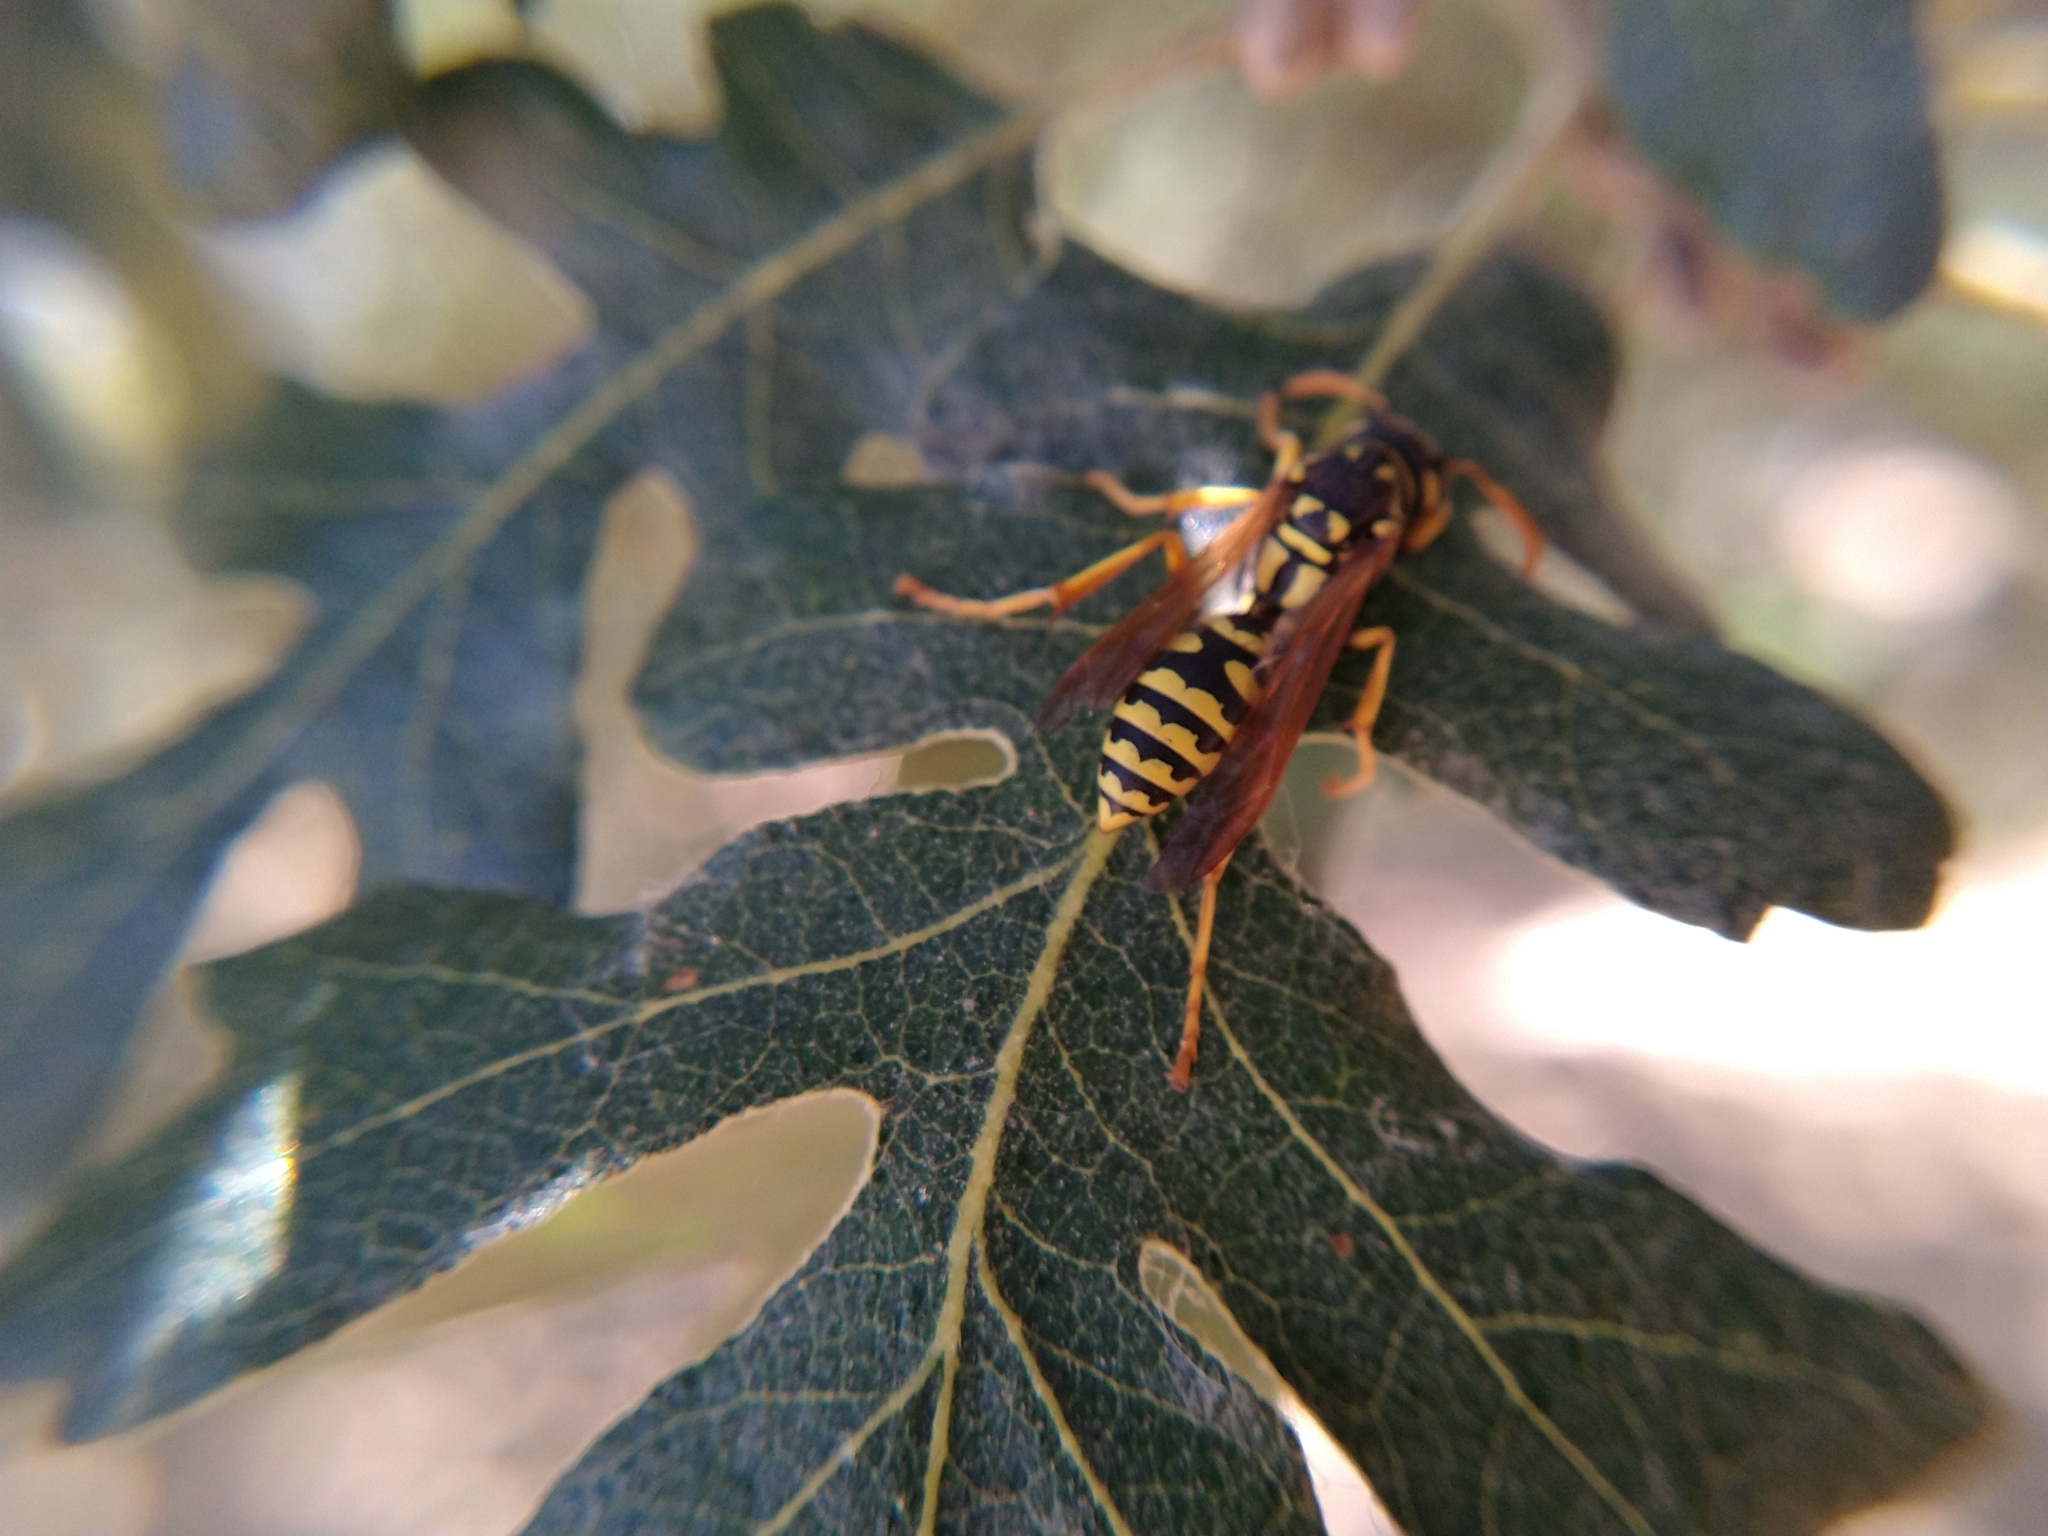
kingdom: Animalia
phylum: Arthropoda
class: Insecta
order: Hymenoptera
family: Eumenidae
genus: Polistes
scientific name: Polistes dominula
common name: Paper wasp
